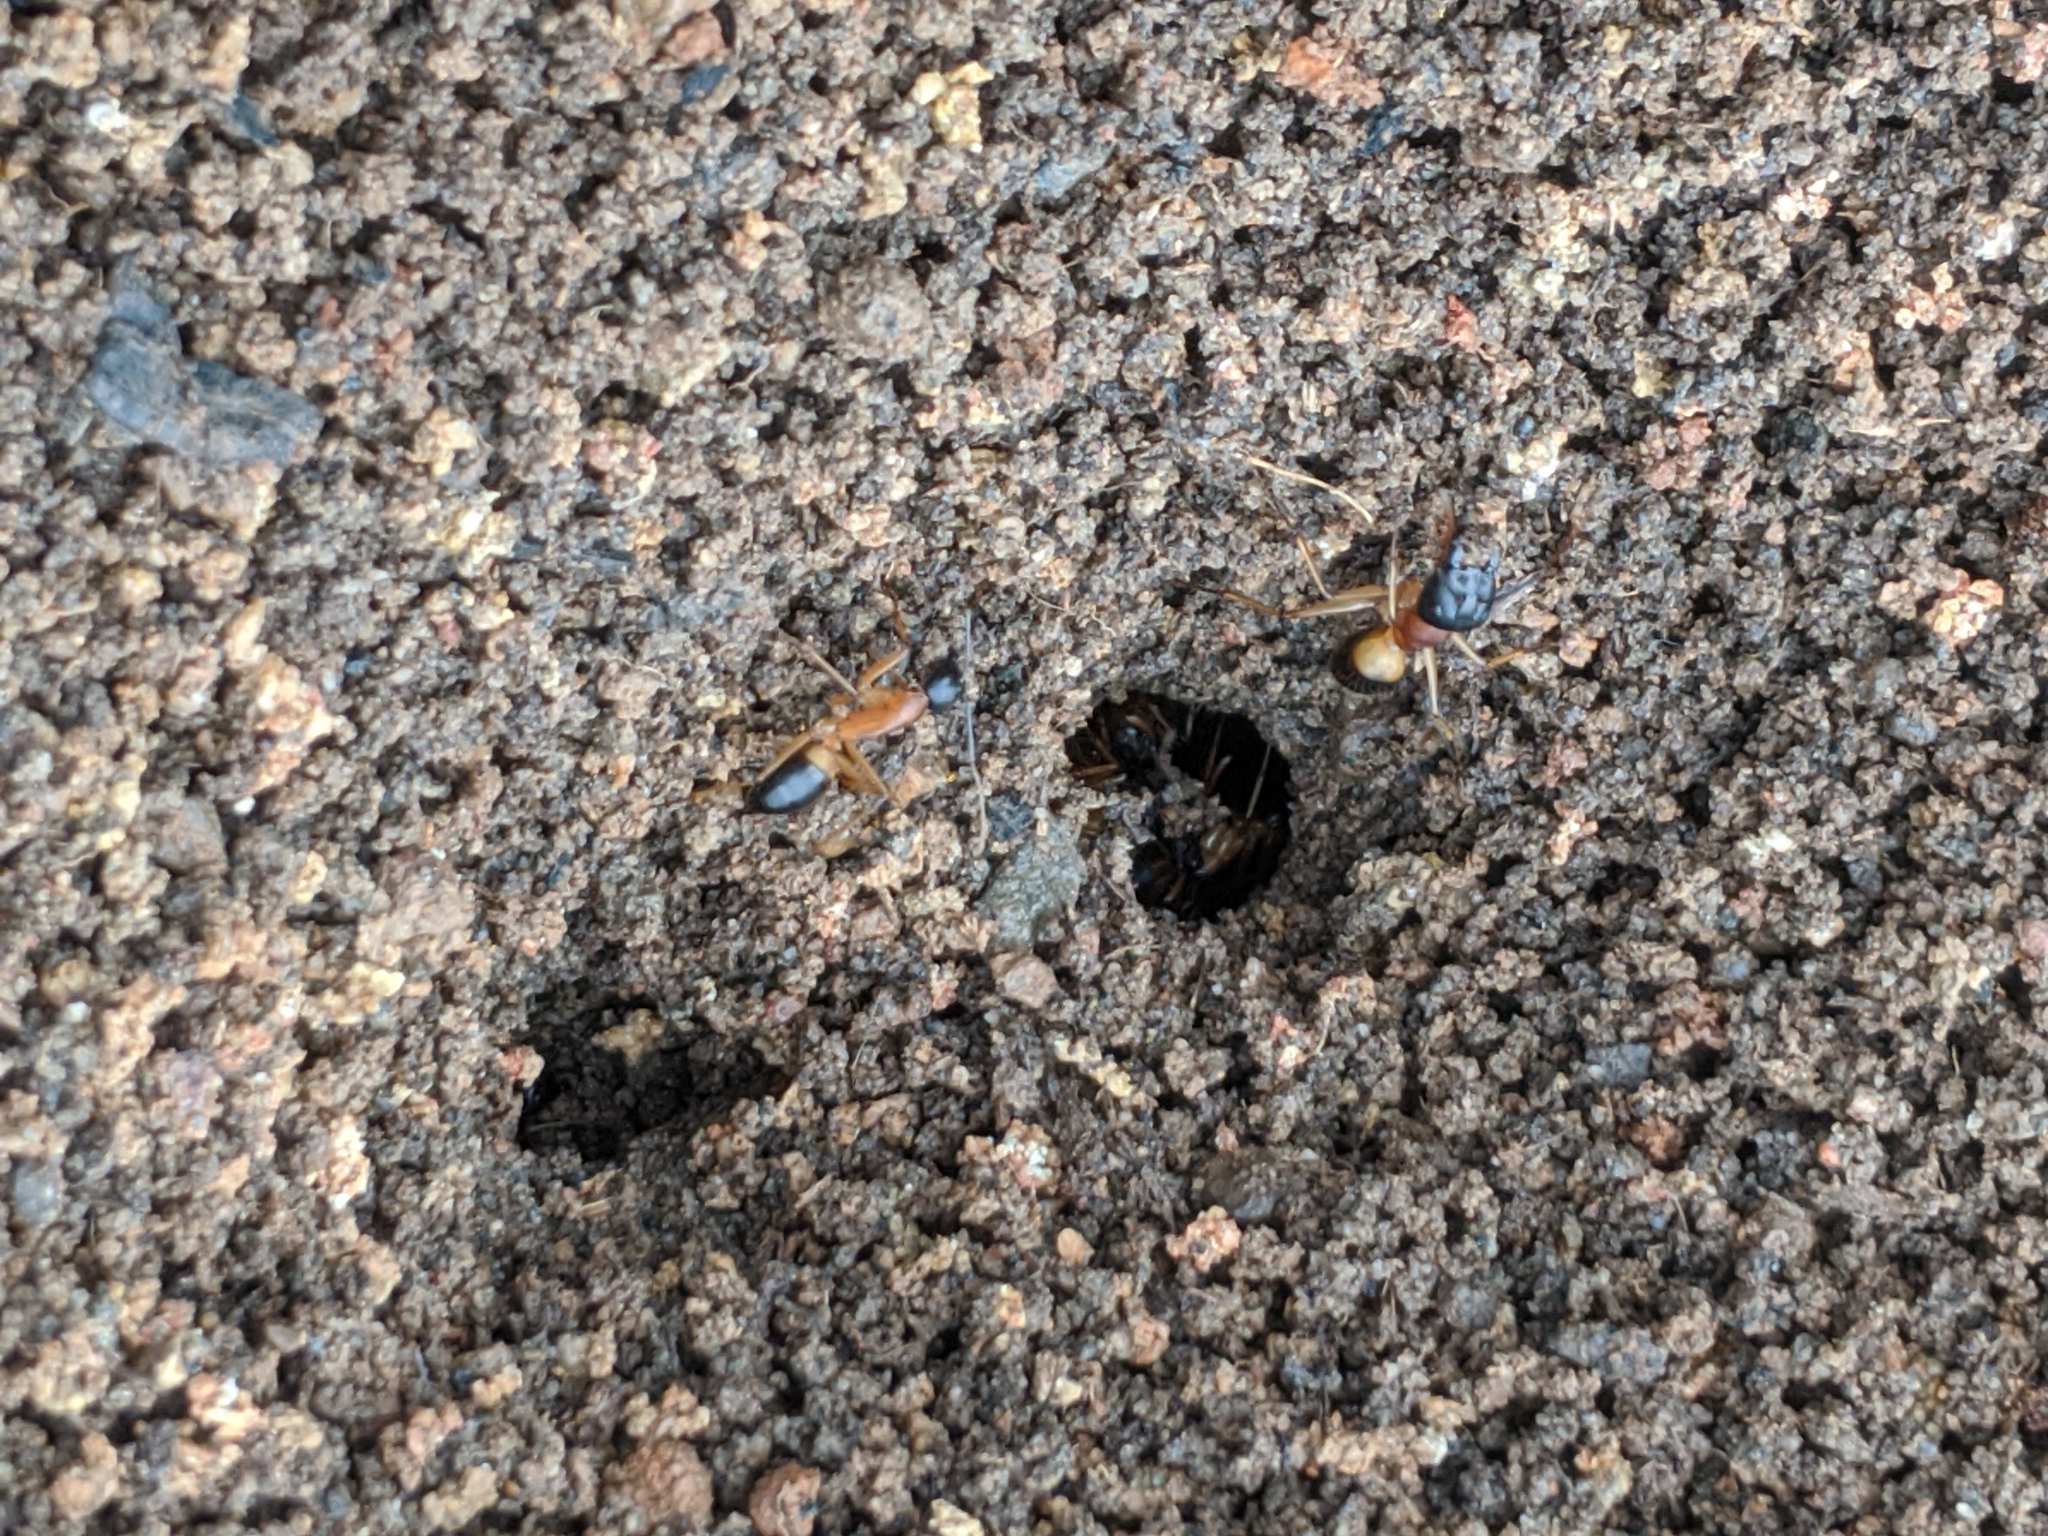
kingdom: Animalia
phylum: Arthropoda
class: Insecta
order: Hymenoptera
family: Formicidae
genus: Camponotus
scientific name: Camponotus consobrinus
